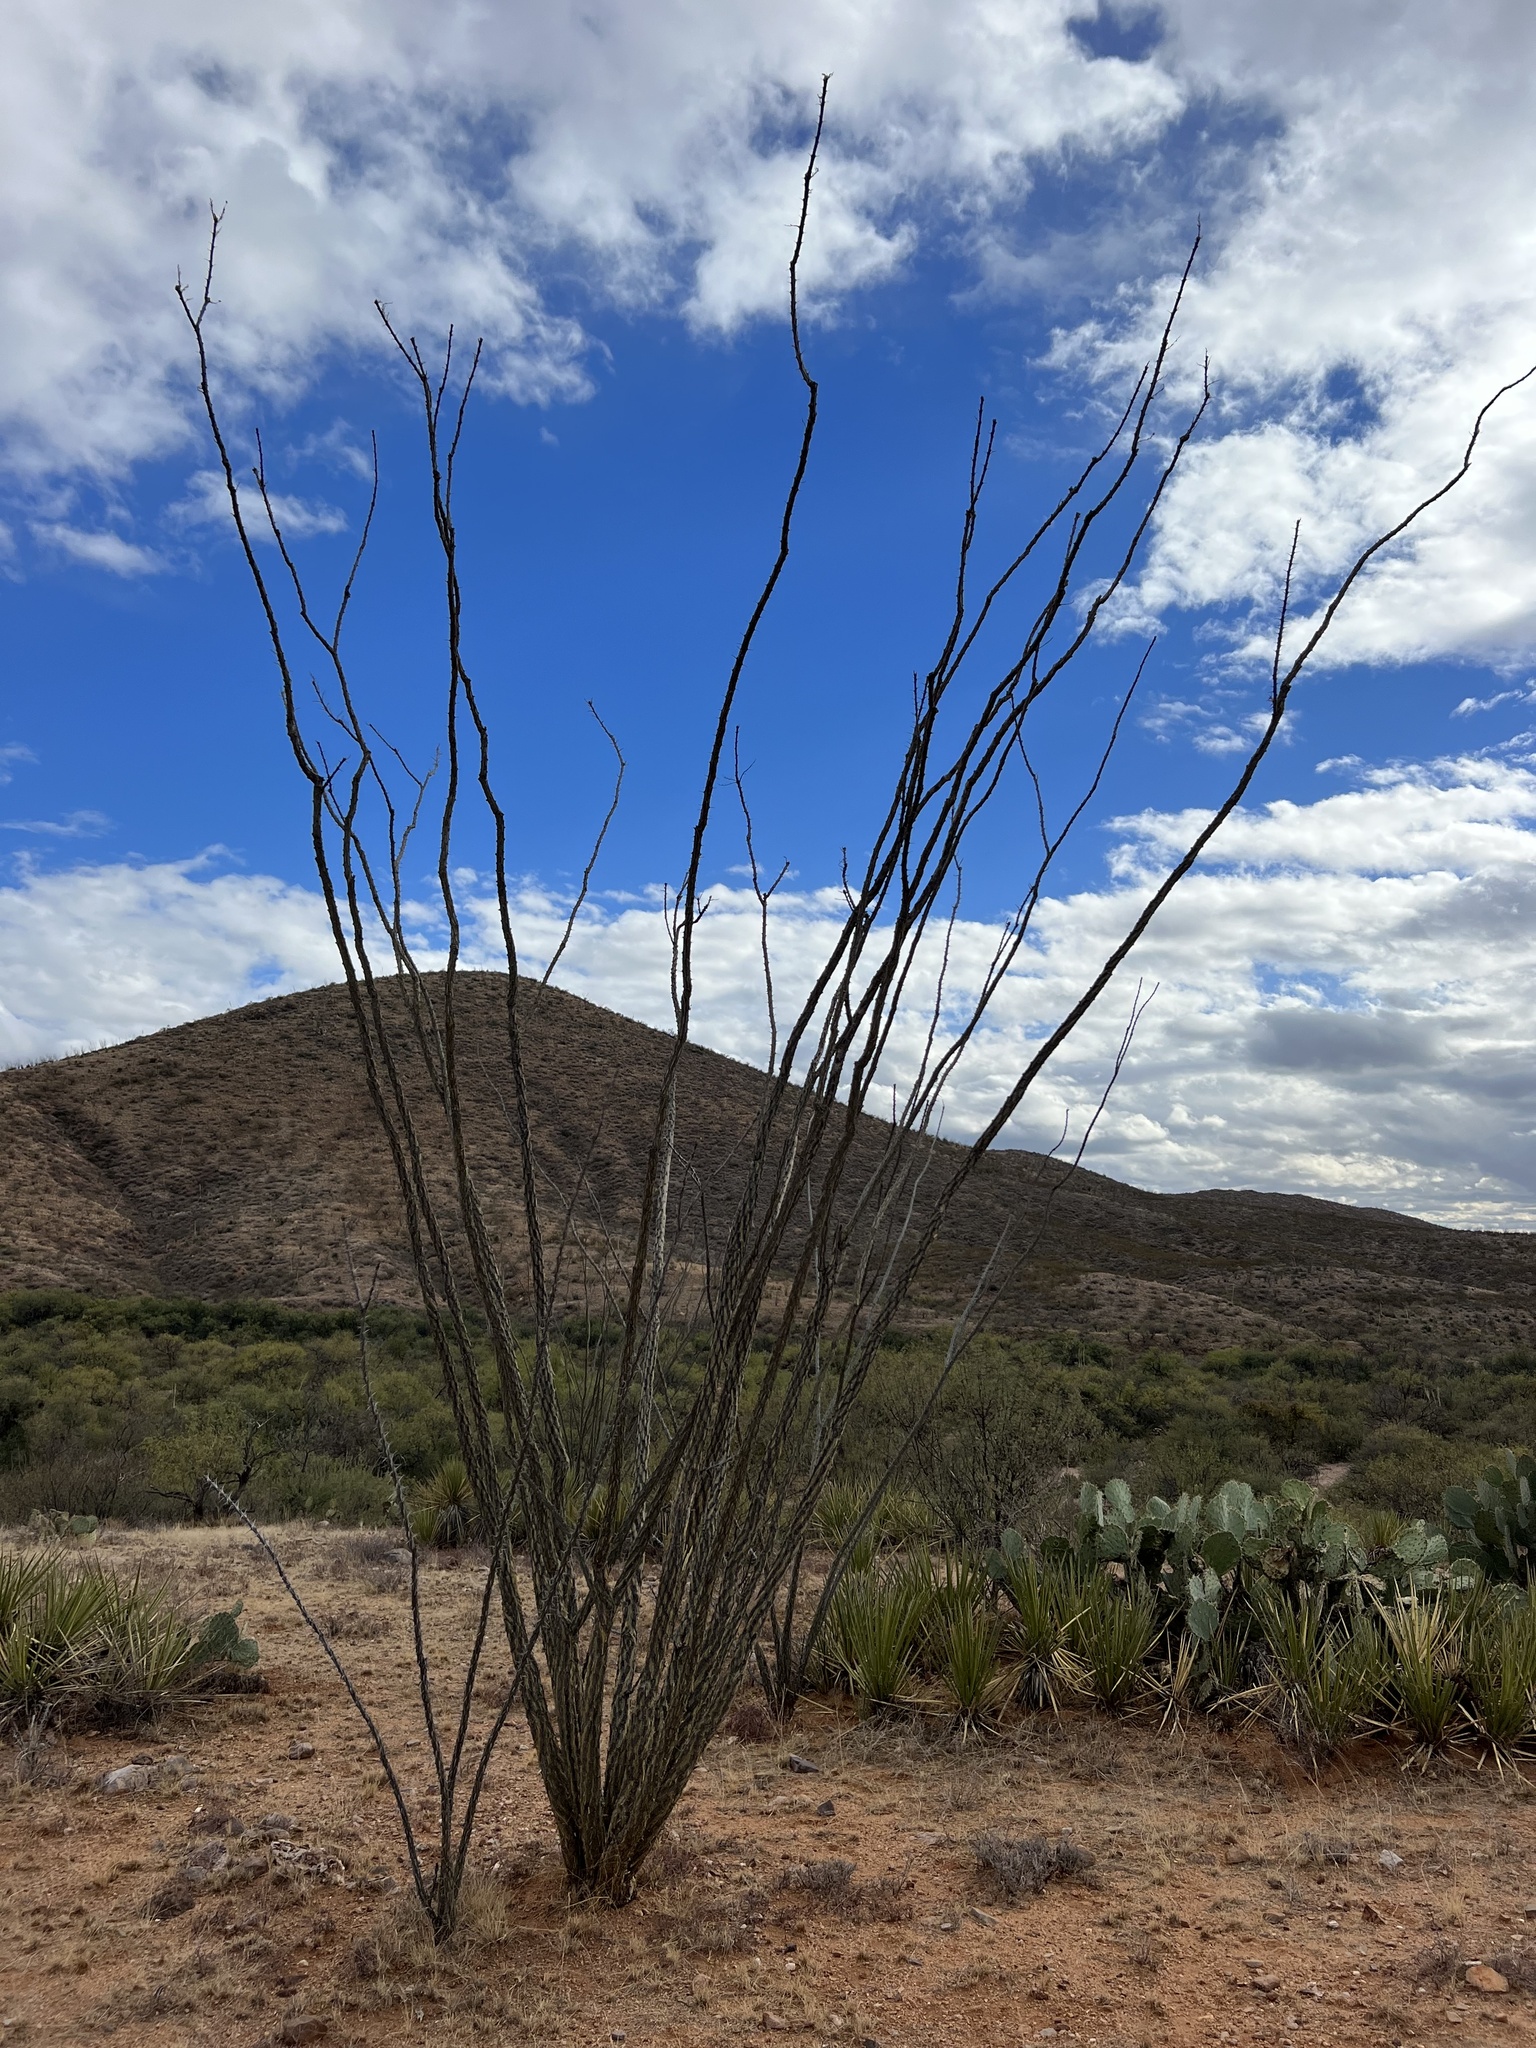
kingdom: Plantae
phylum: Tracheophyta
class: Magnoliopsida
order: Ericales
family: Fouquieriaceae
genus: Fouquieria
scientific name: Fouquieria splendens
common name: Vine-cactus
